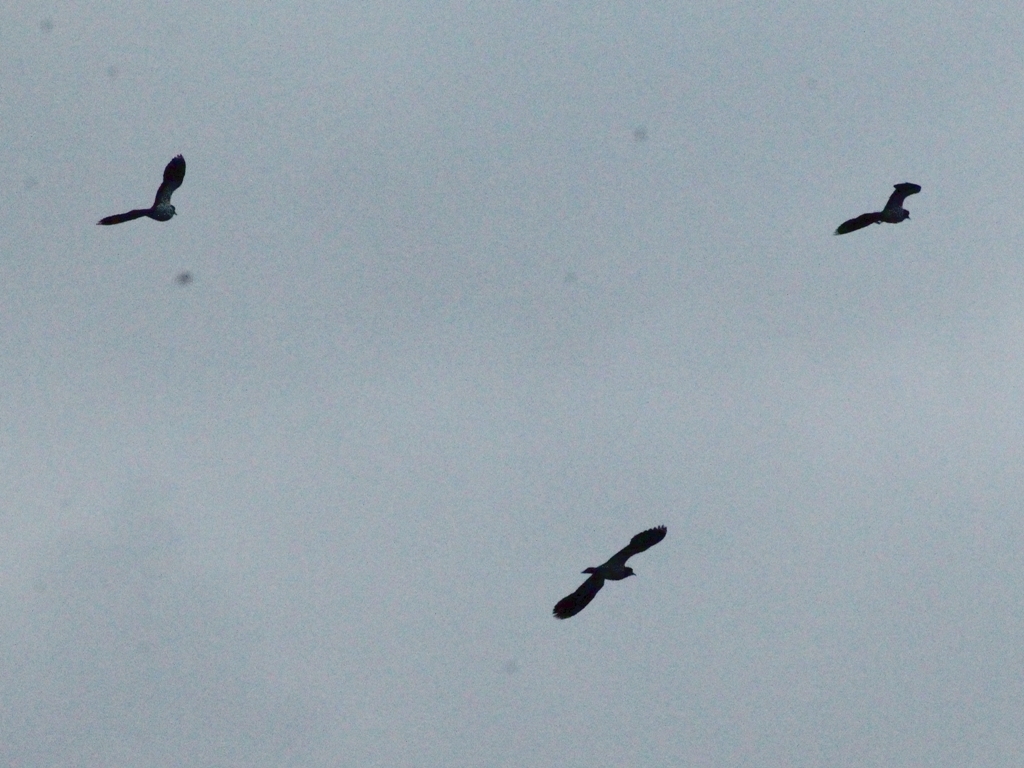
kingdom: Animalia
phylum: Chordata
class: Aves
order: Charadriiformes
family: Charadriidae
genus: Vanellus
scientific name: Vanellus vanellus
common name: Northern lapwing
